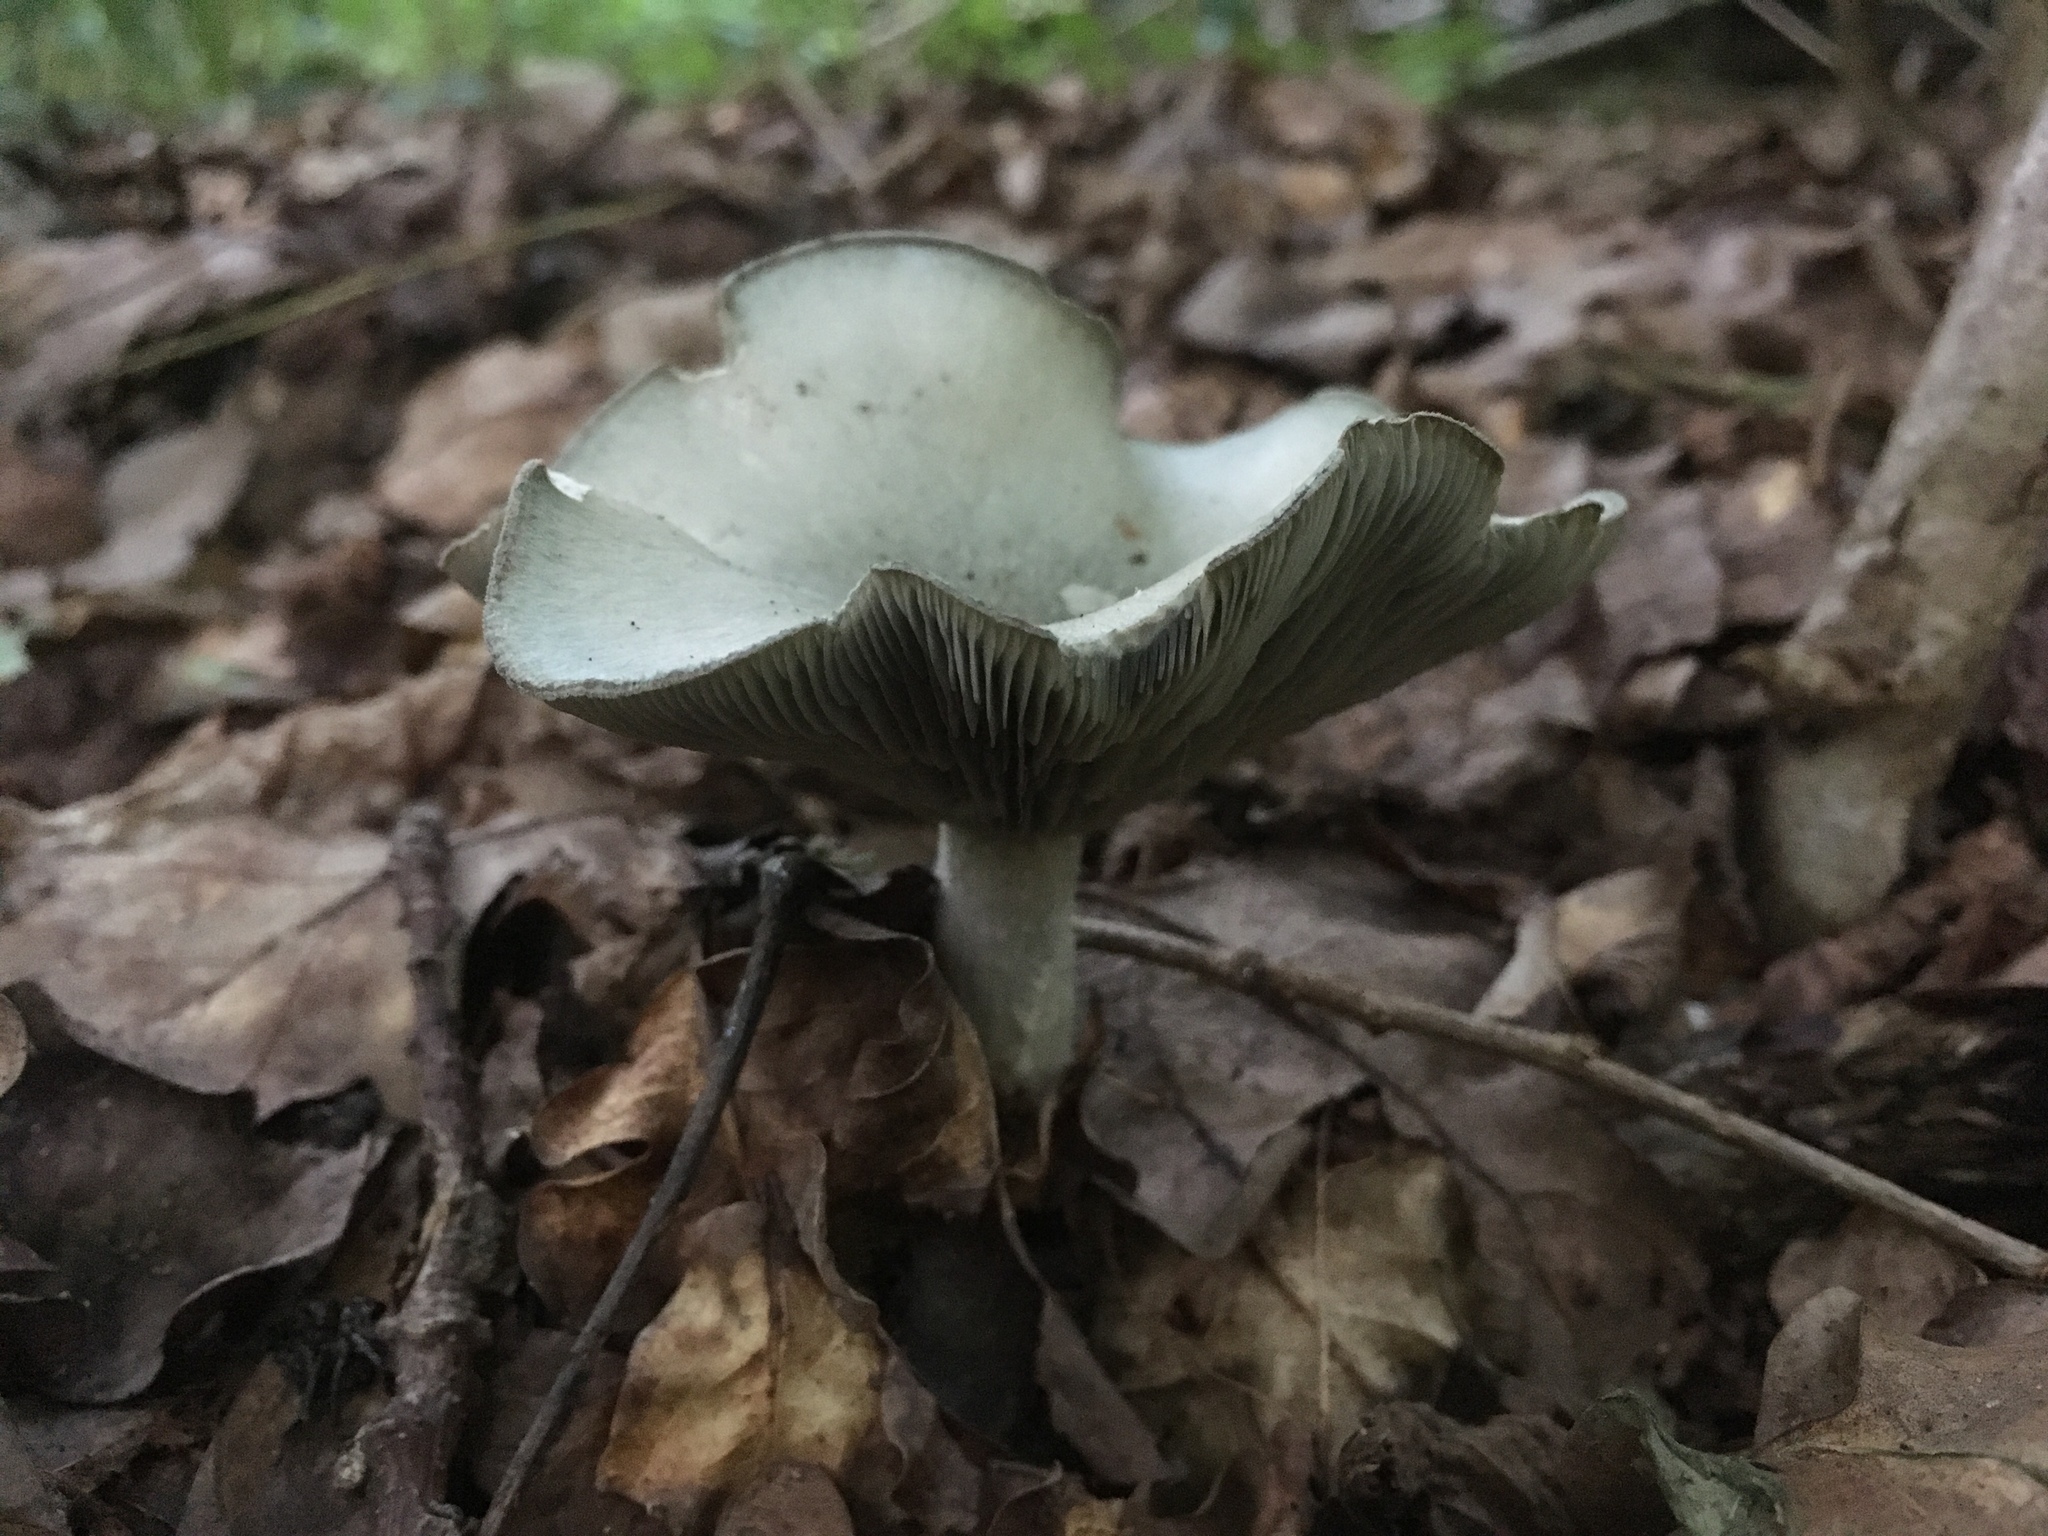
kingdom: Fungi
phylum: Basidiomycota
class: Agaricomycetes
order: Agaricales
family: Tricholomataceae
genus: Collybia
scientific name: Collybia
